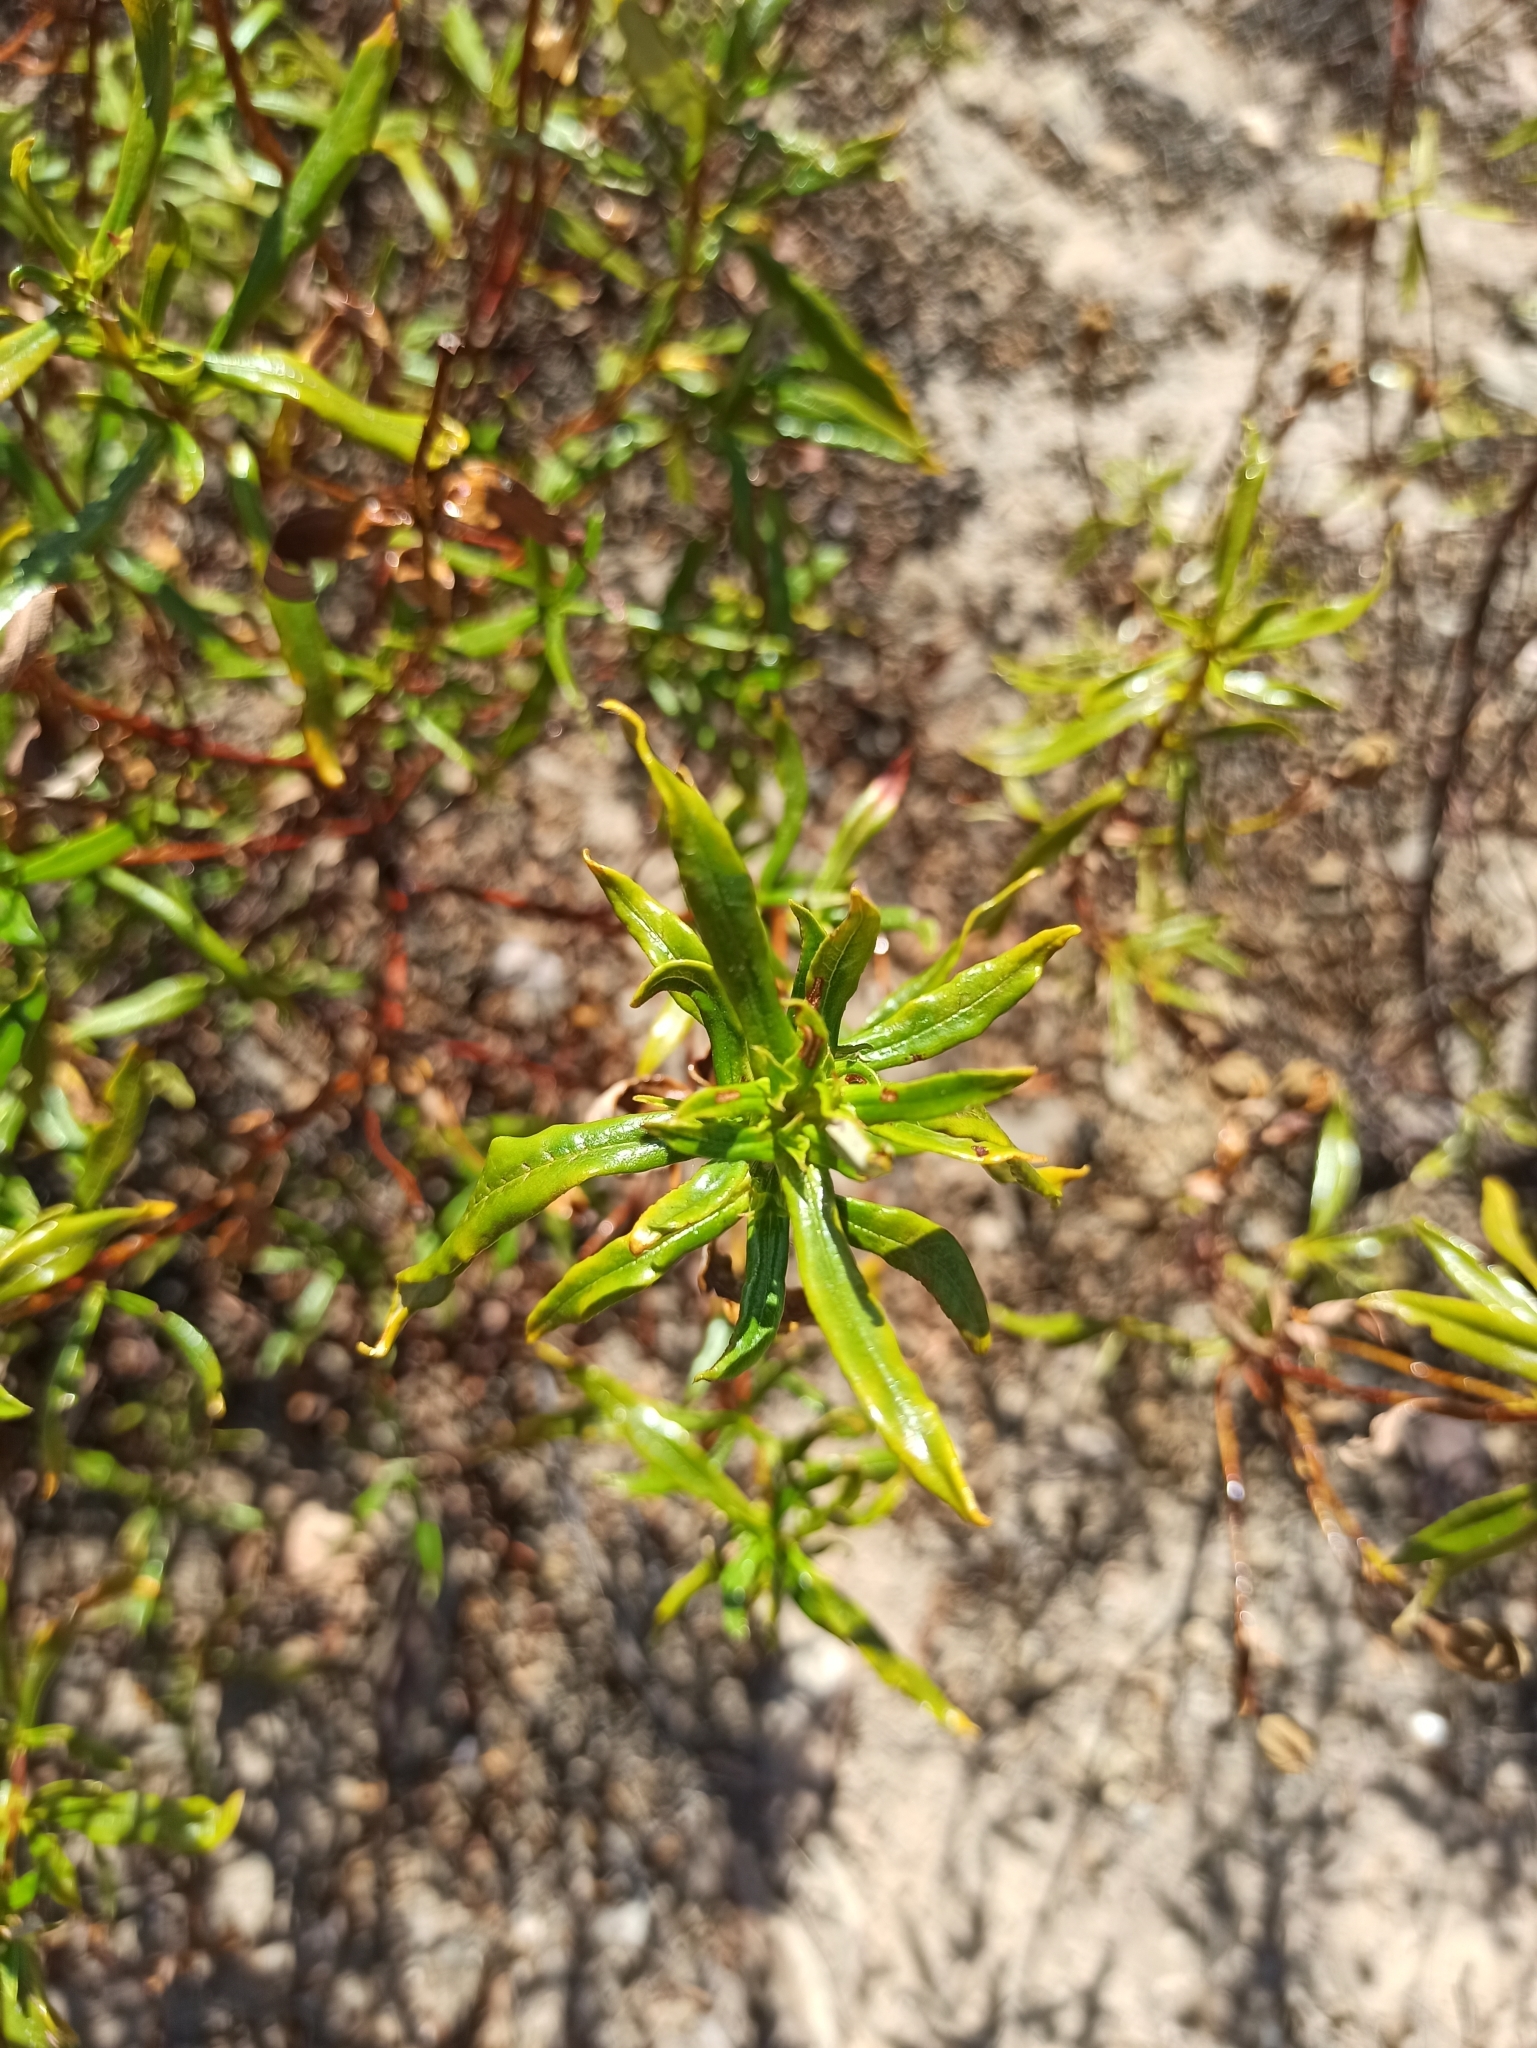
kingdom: Plantae
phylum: Tracheophyta
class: Magnoliopsida
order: Malvales
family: Cistaceae
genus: Cistus
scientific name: Cistus ladanifer
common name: Common gum cistus
